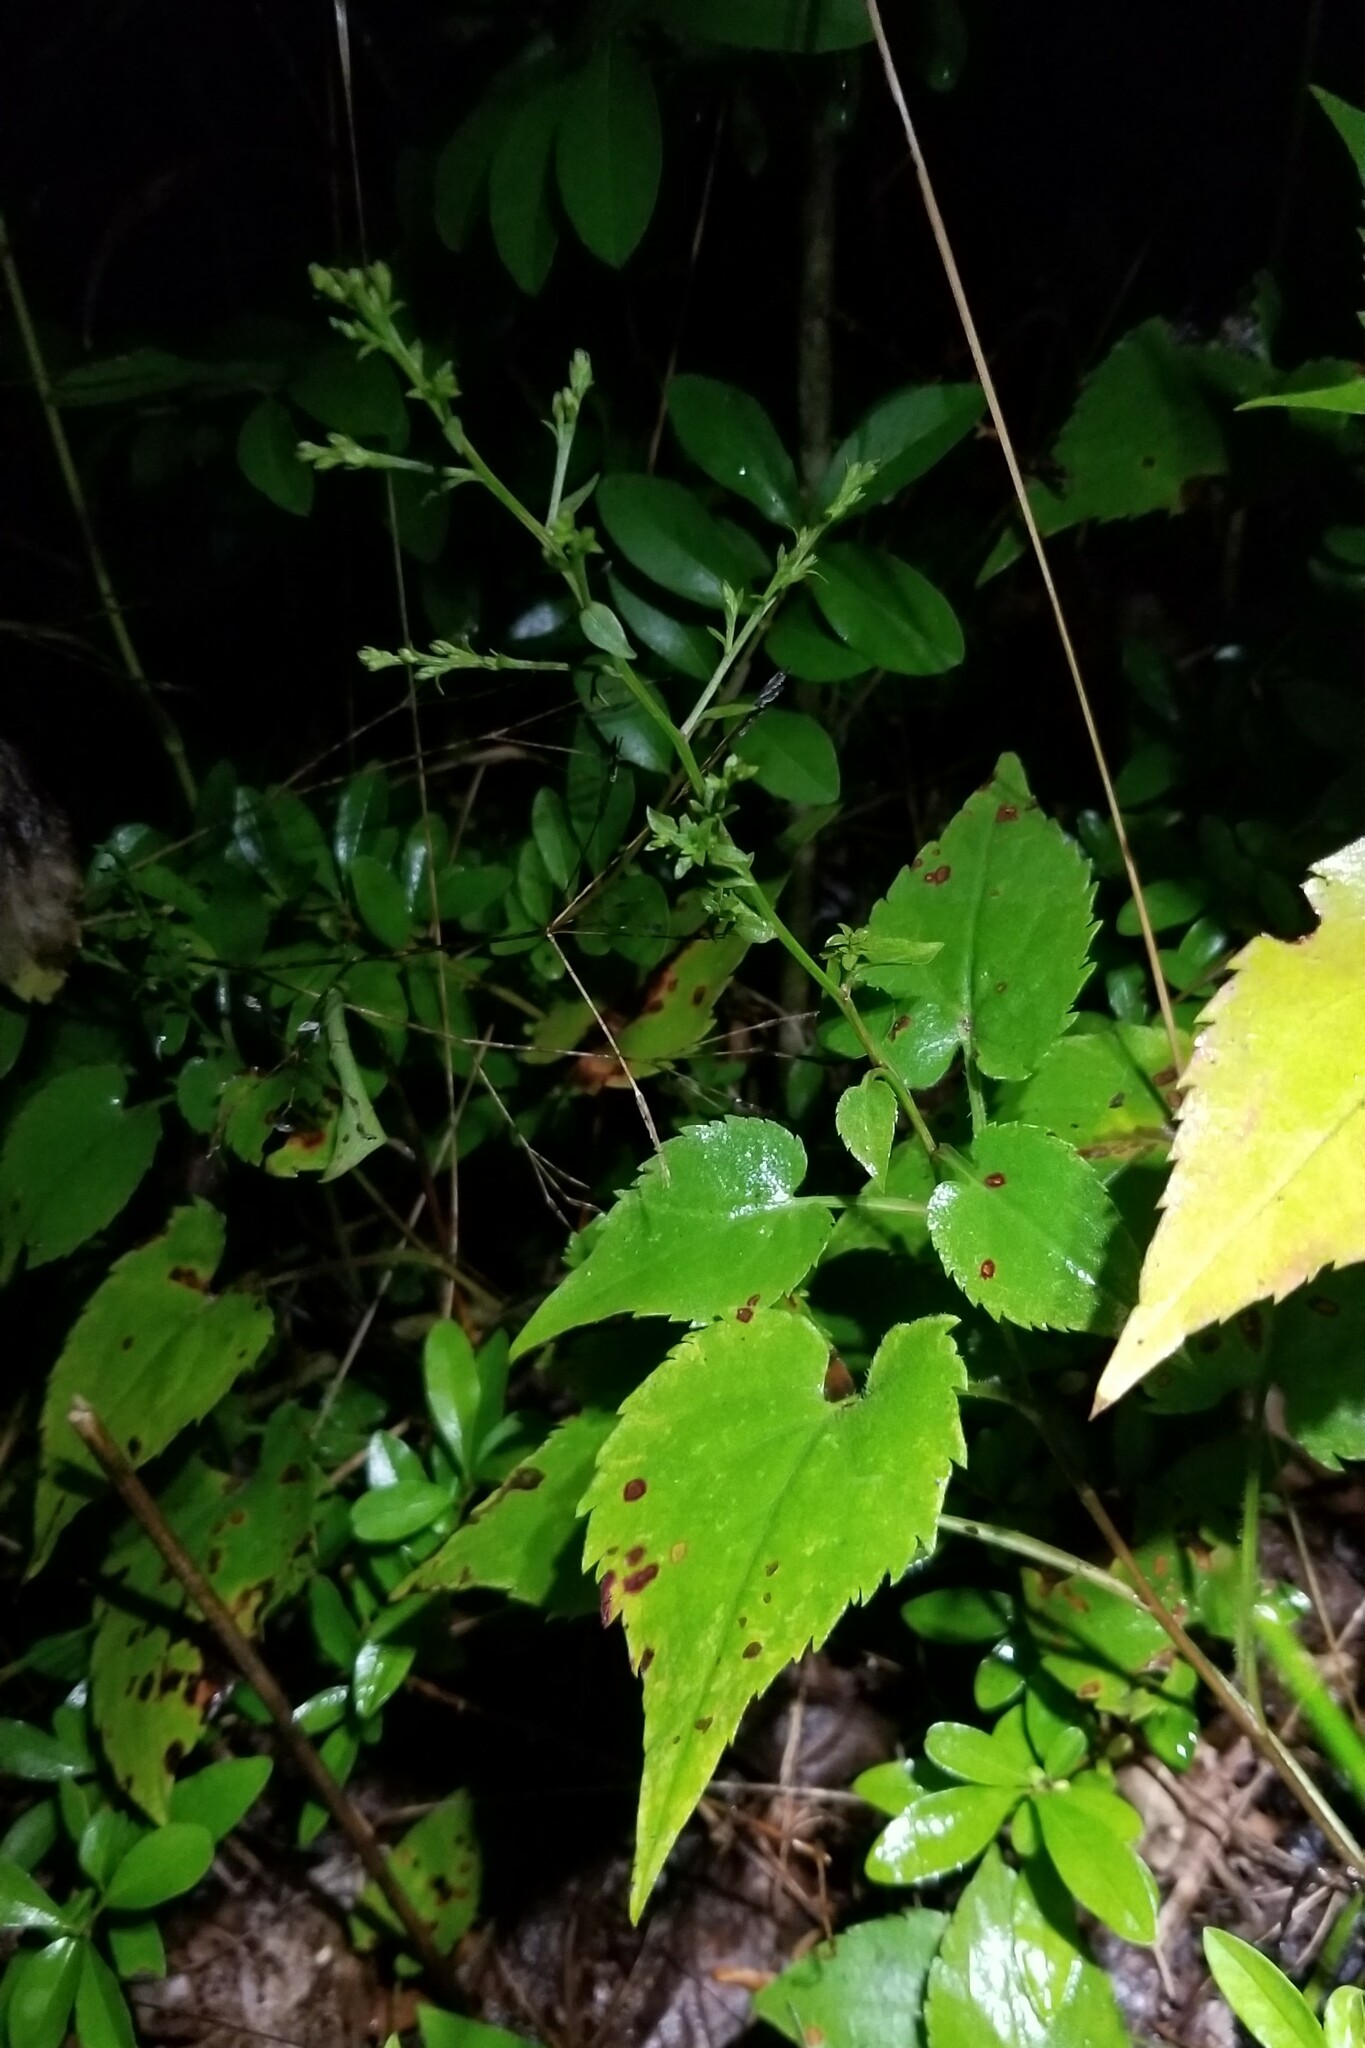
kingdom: Plantae
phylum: Tracheophyta
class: Magnoliopsida
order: Asterales
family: Asteraceae
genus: Symphyotrichum
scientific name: Symphyotrichum cordifolium
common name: Beeweed
